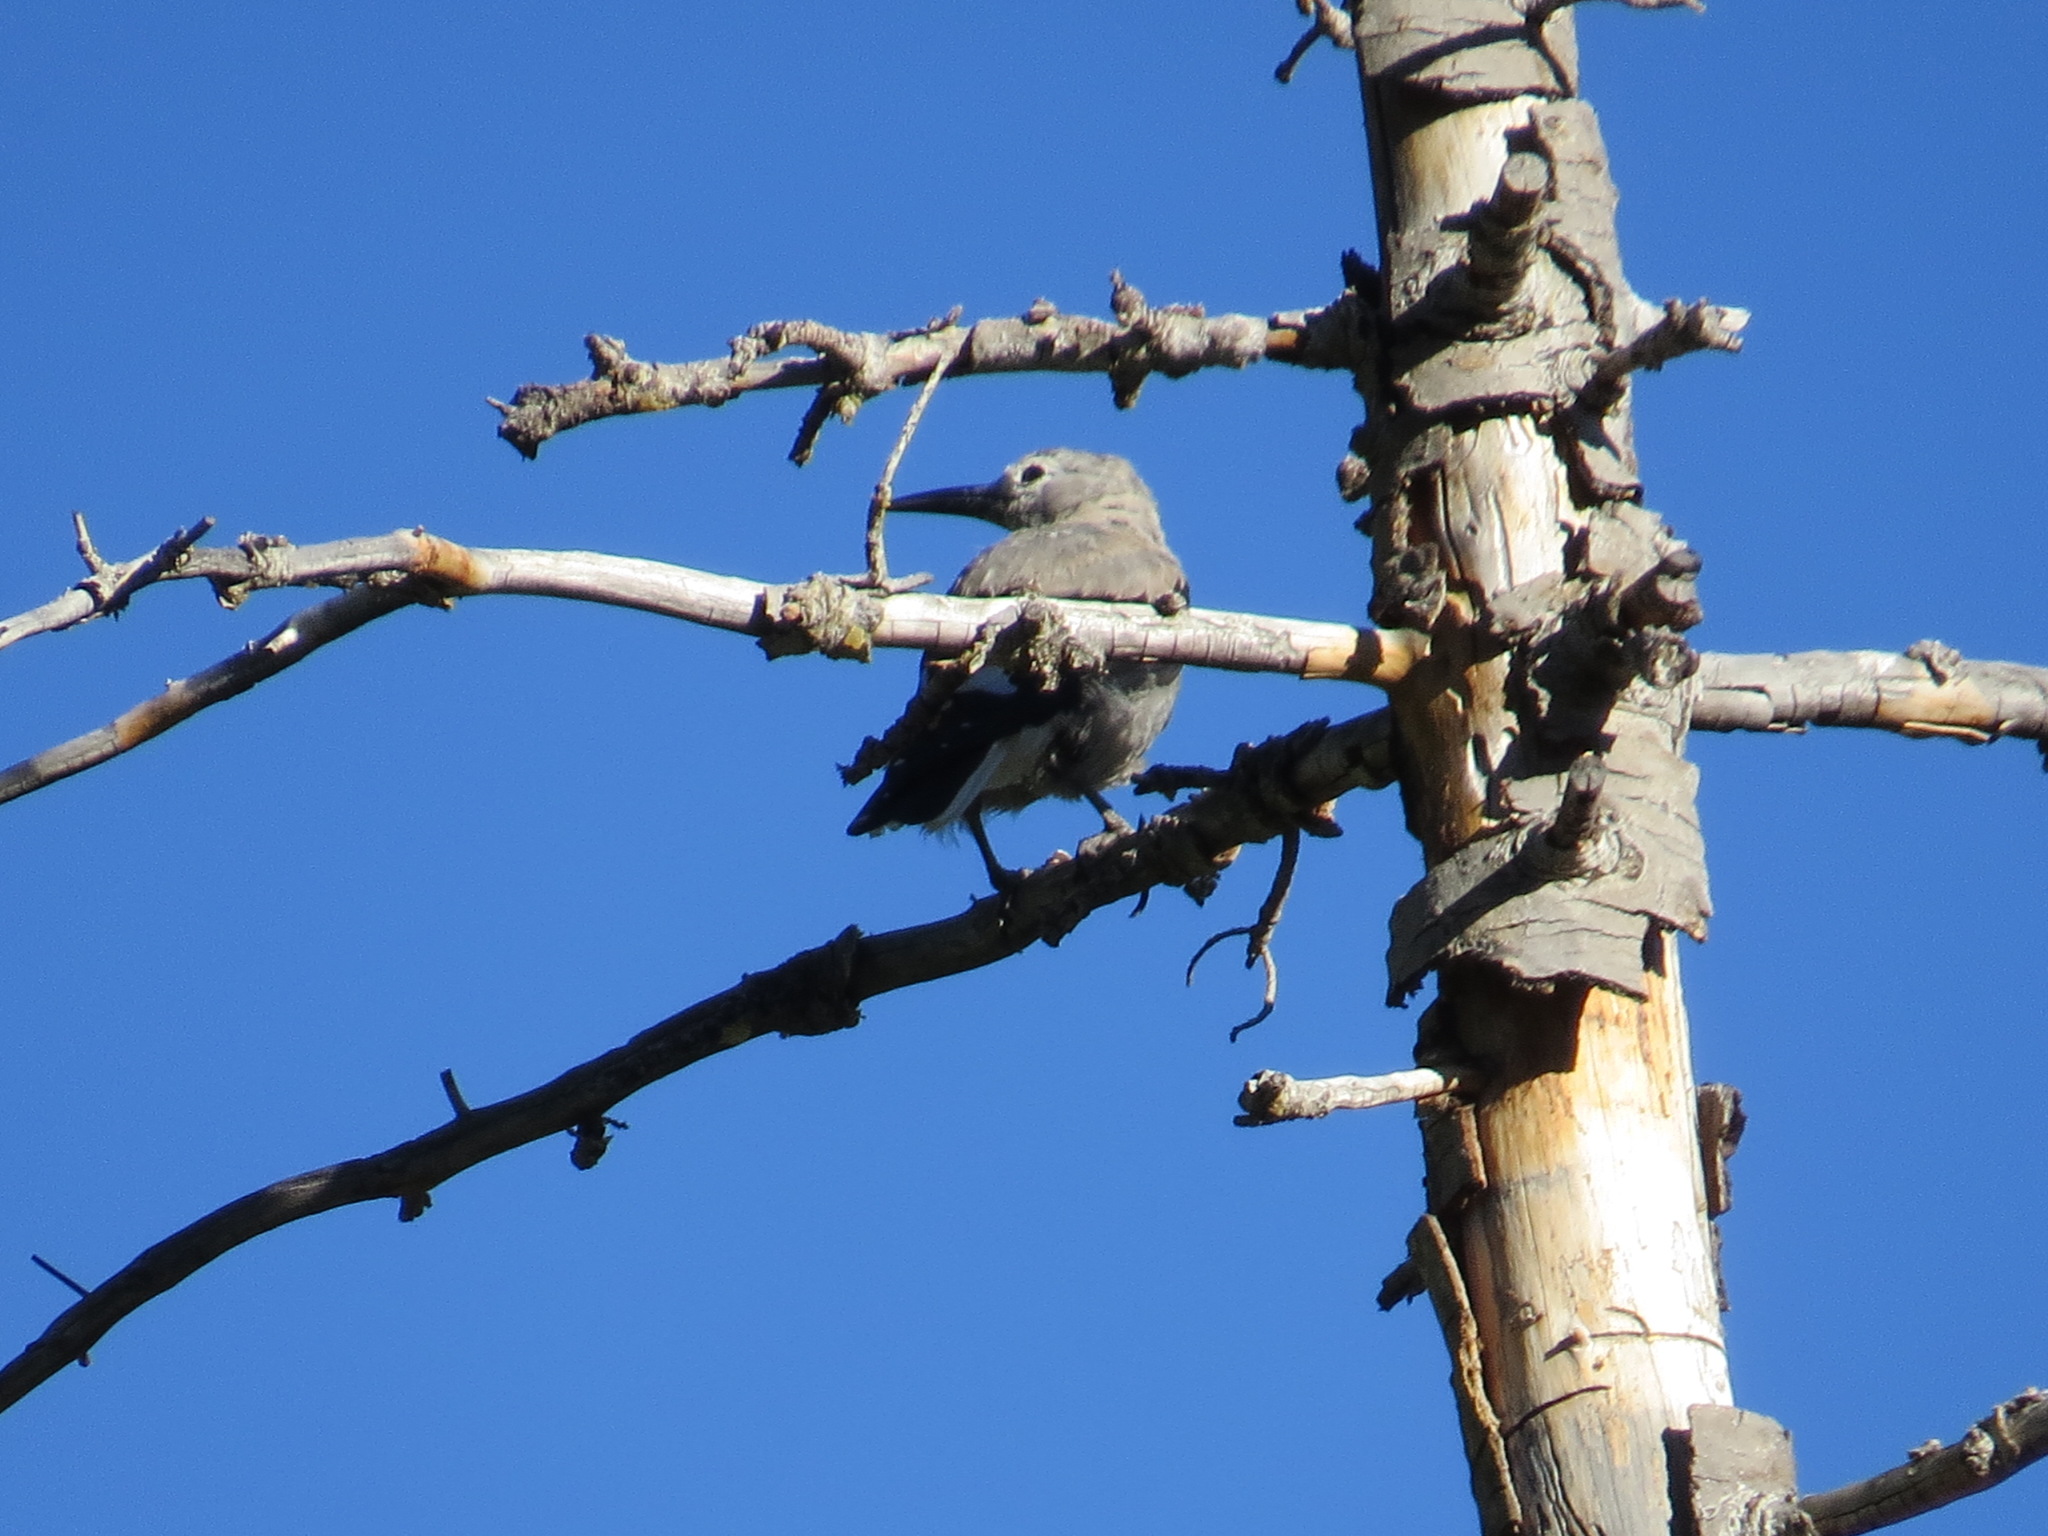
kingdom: Animalia
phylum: Chordata
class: Aves
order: Passeriformes
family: Corvidae
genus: Nucifraga
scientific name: Nucifraga columbiana
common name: Clark's nutcracker
